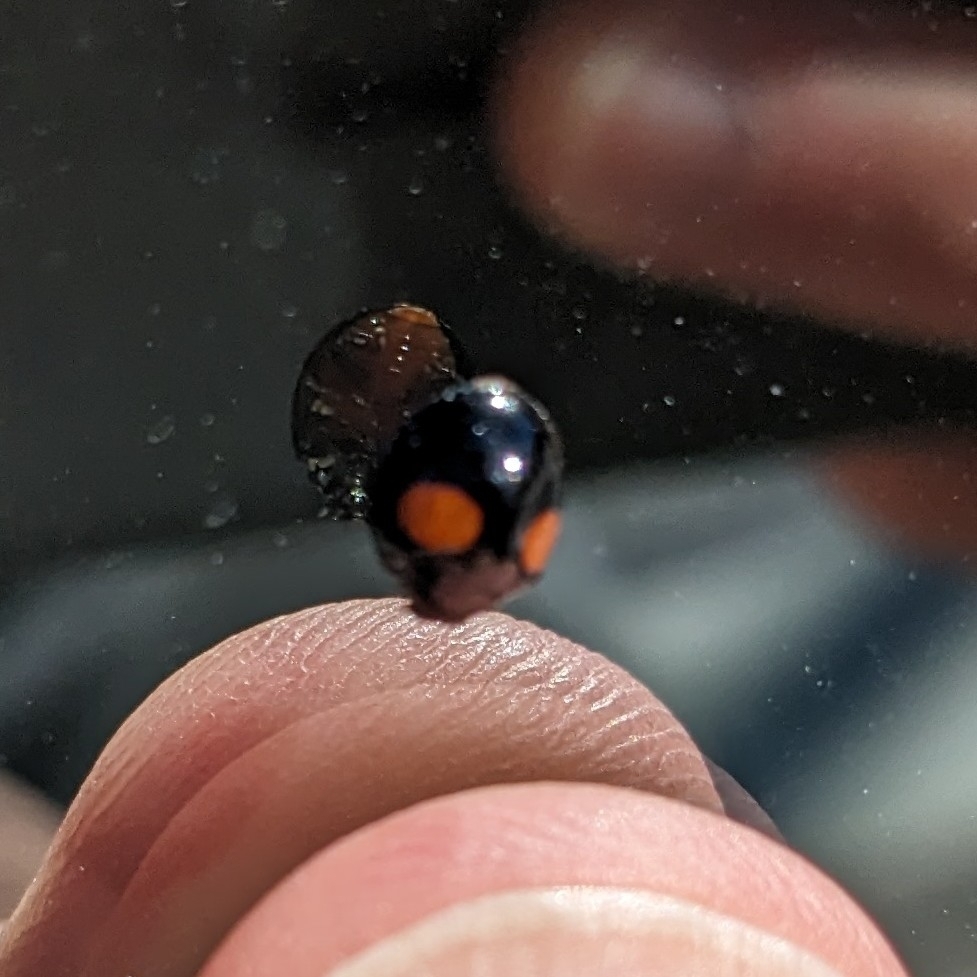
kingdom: Animalia
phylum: Arthropoda
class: Insecta
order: Coleoptera
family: Coccinellidae
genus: Chilocorus
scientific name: Chilocorus cacti
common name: Cactus lady beetle
